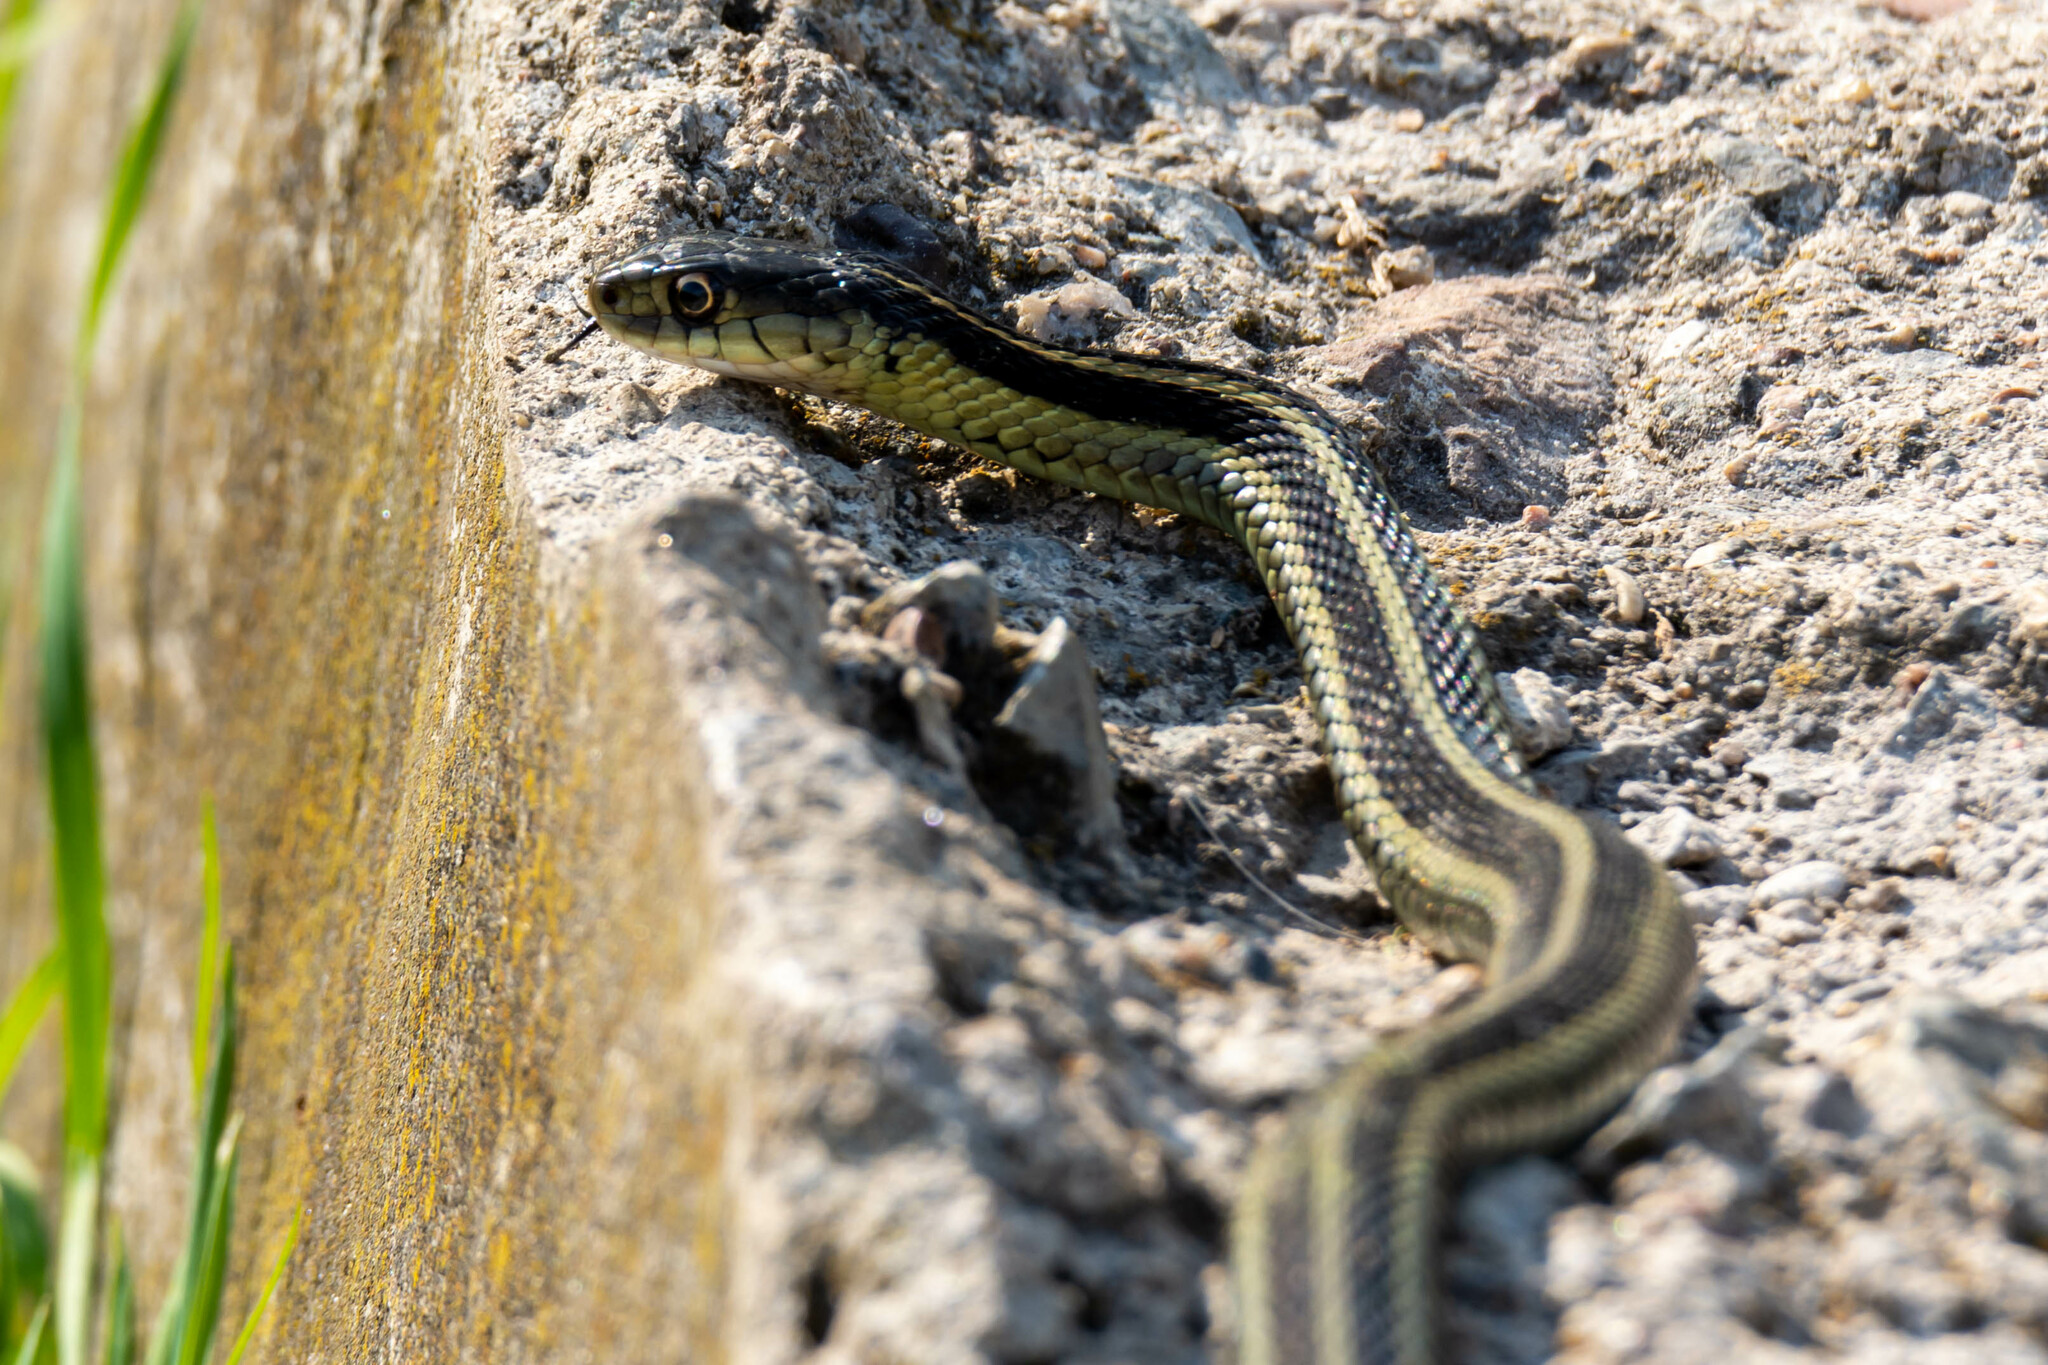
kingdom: Animalia
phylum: Chordata
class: Squamata
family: Colubridae
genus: Thamnophis
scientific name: Thamnophis sirtalis
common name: Common garter snake
